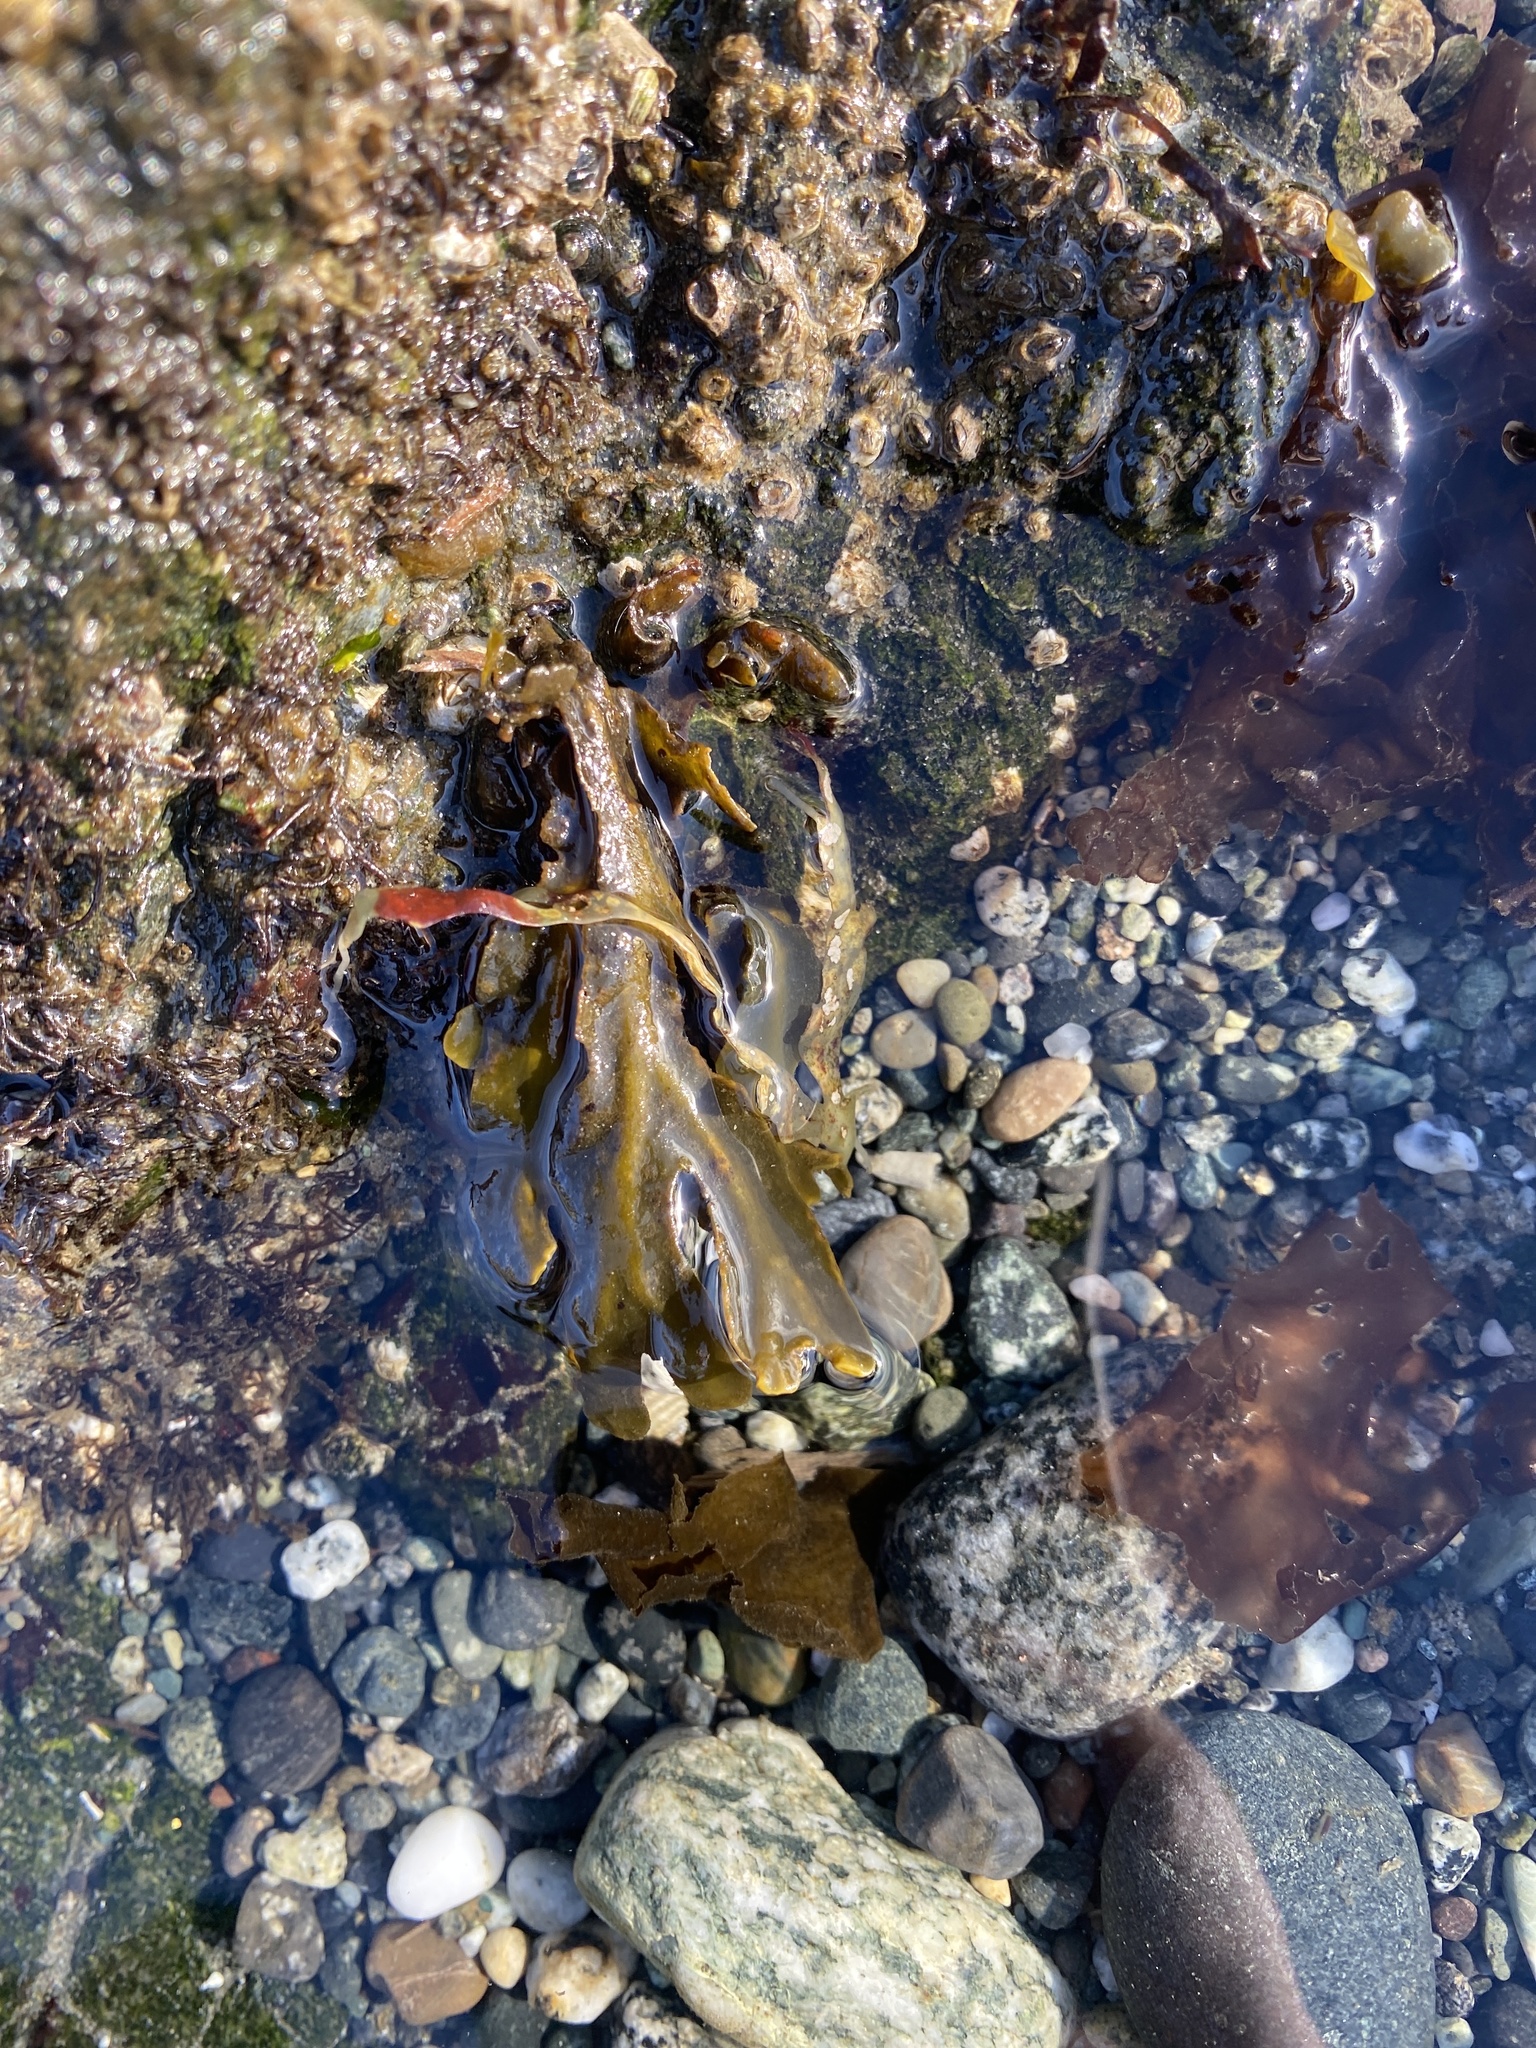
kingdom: Chromista
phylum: Ochrophyta
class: Phaeophyceae
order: Fucales
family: Fucaceae
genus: Fucus
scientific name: Fucus distichus
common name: Rockweed
